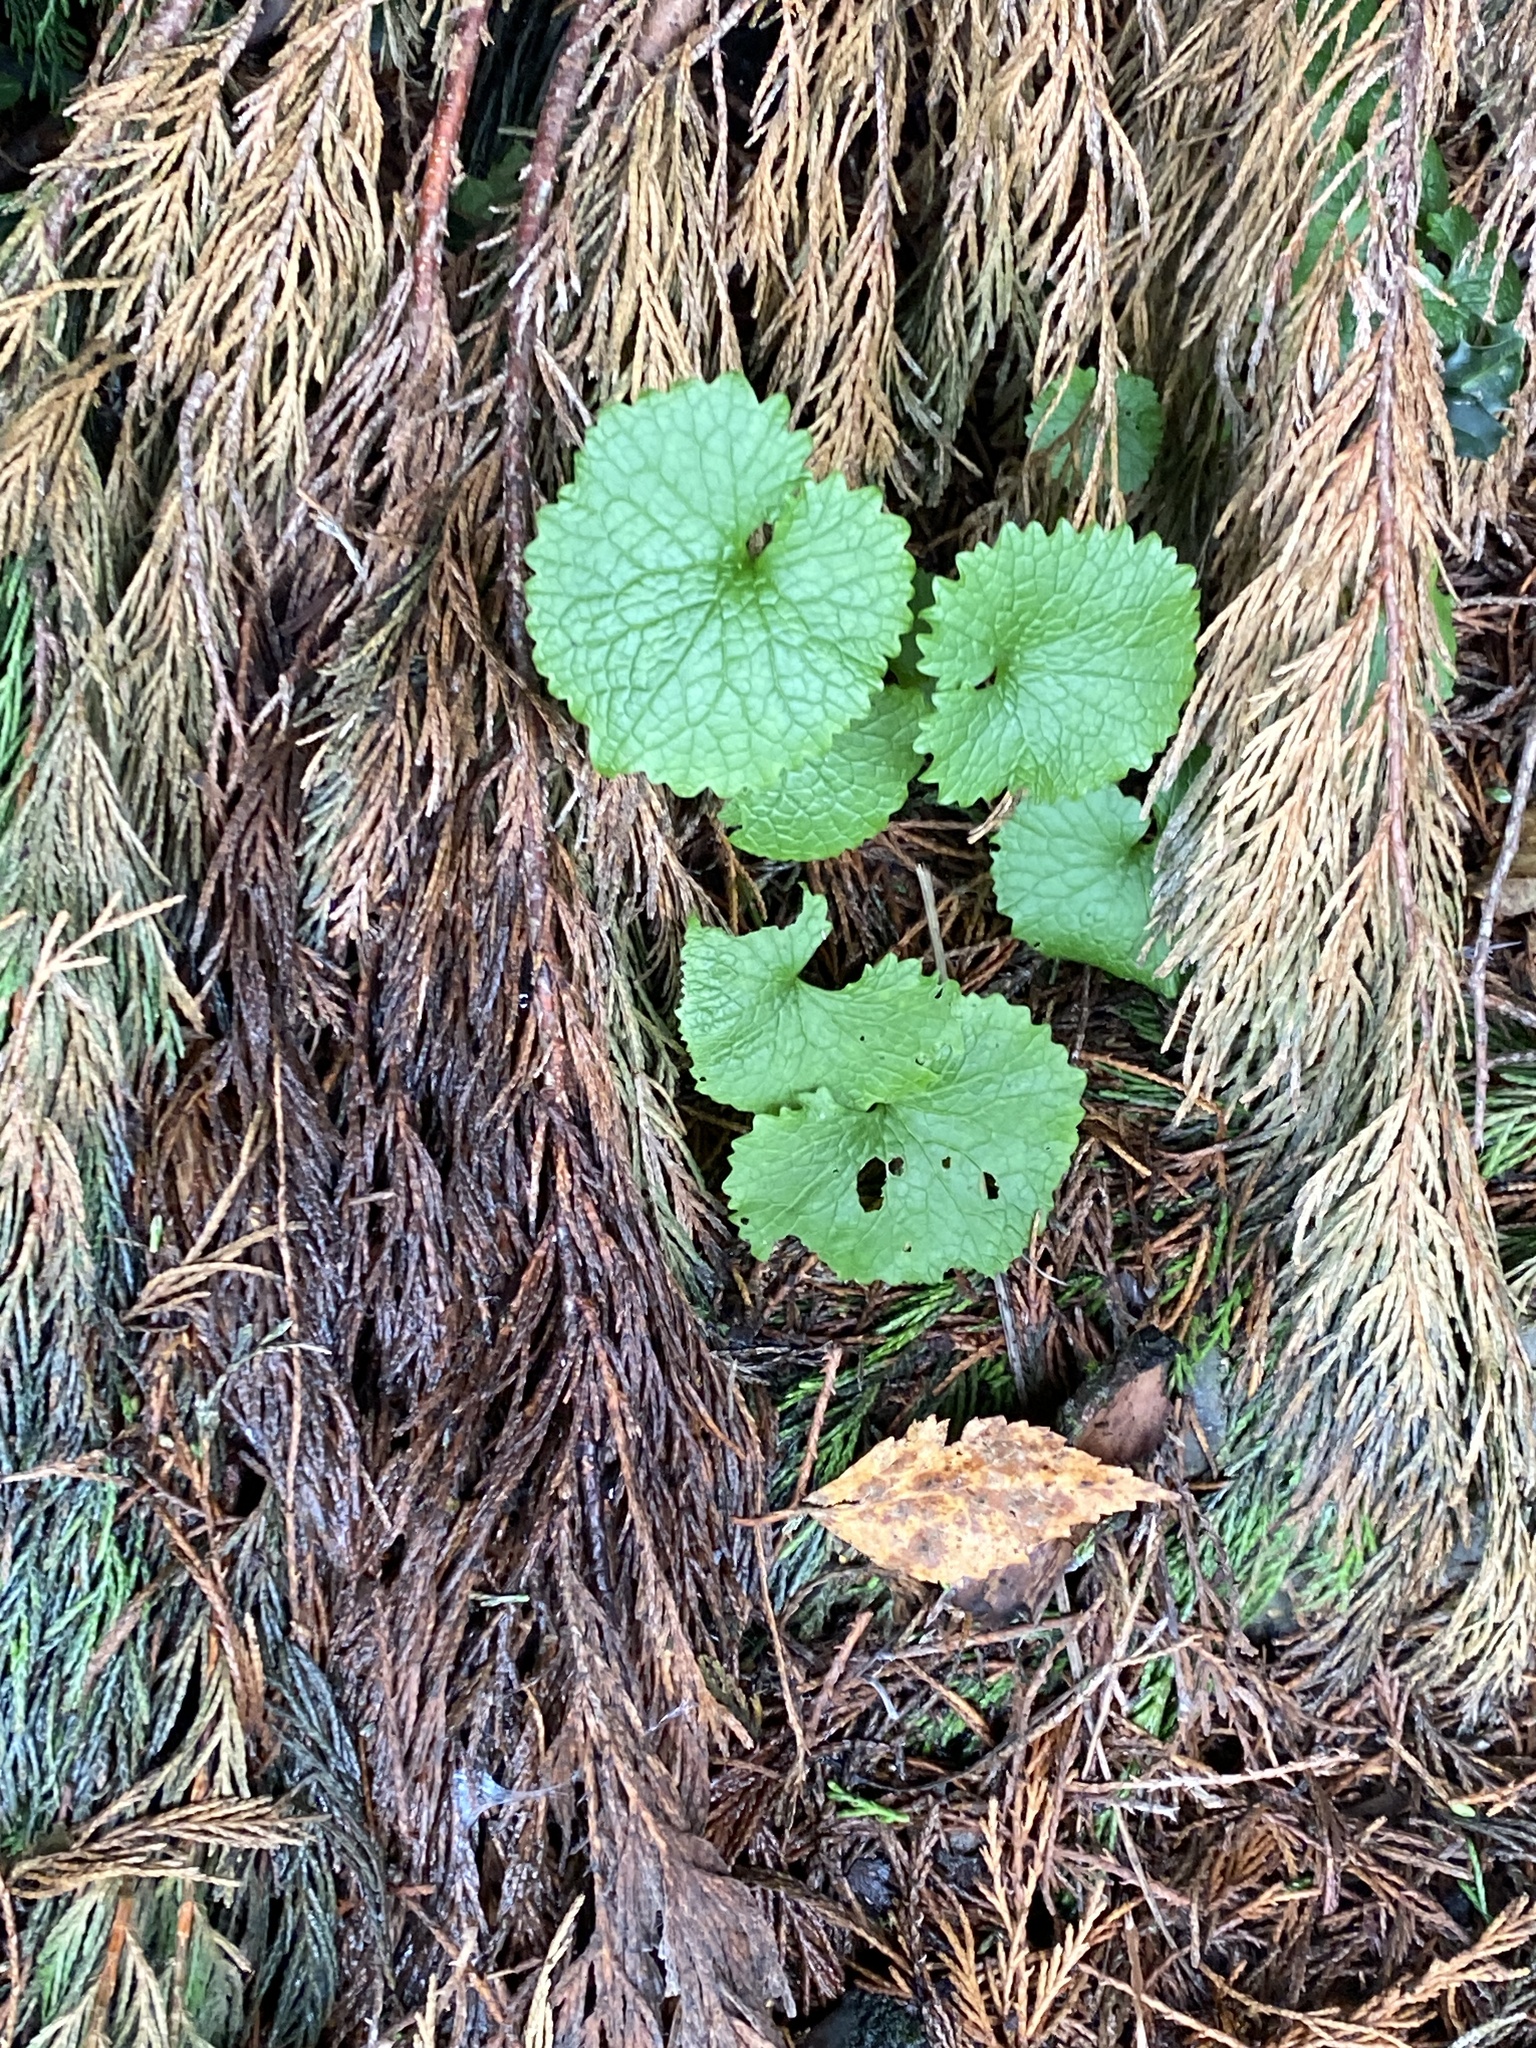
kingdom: Plantae
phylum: Tracheophyta
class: Magnoliopsida
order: Brassicales
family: Brassicaceae
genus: Alliaria
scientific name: Alliaria petiolata
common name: Garlic mustard
